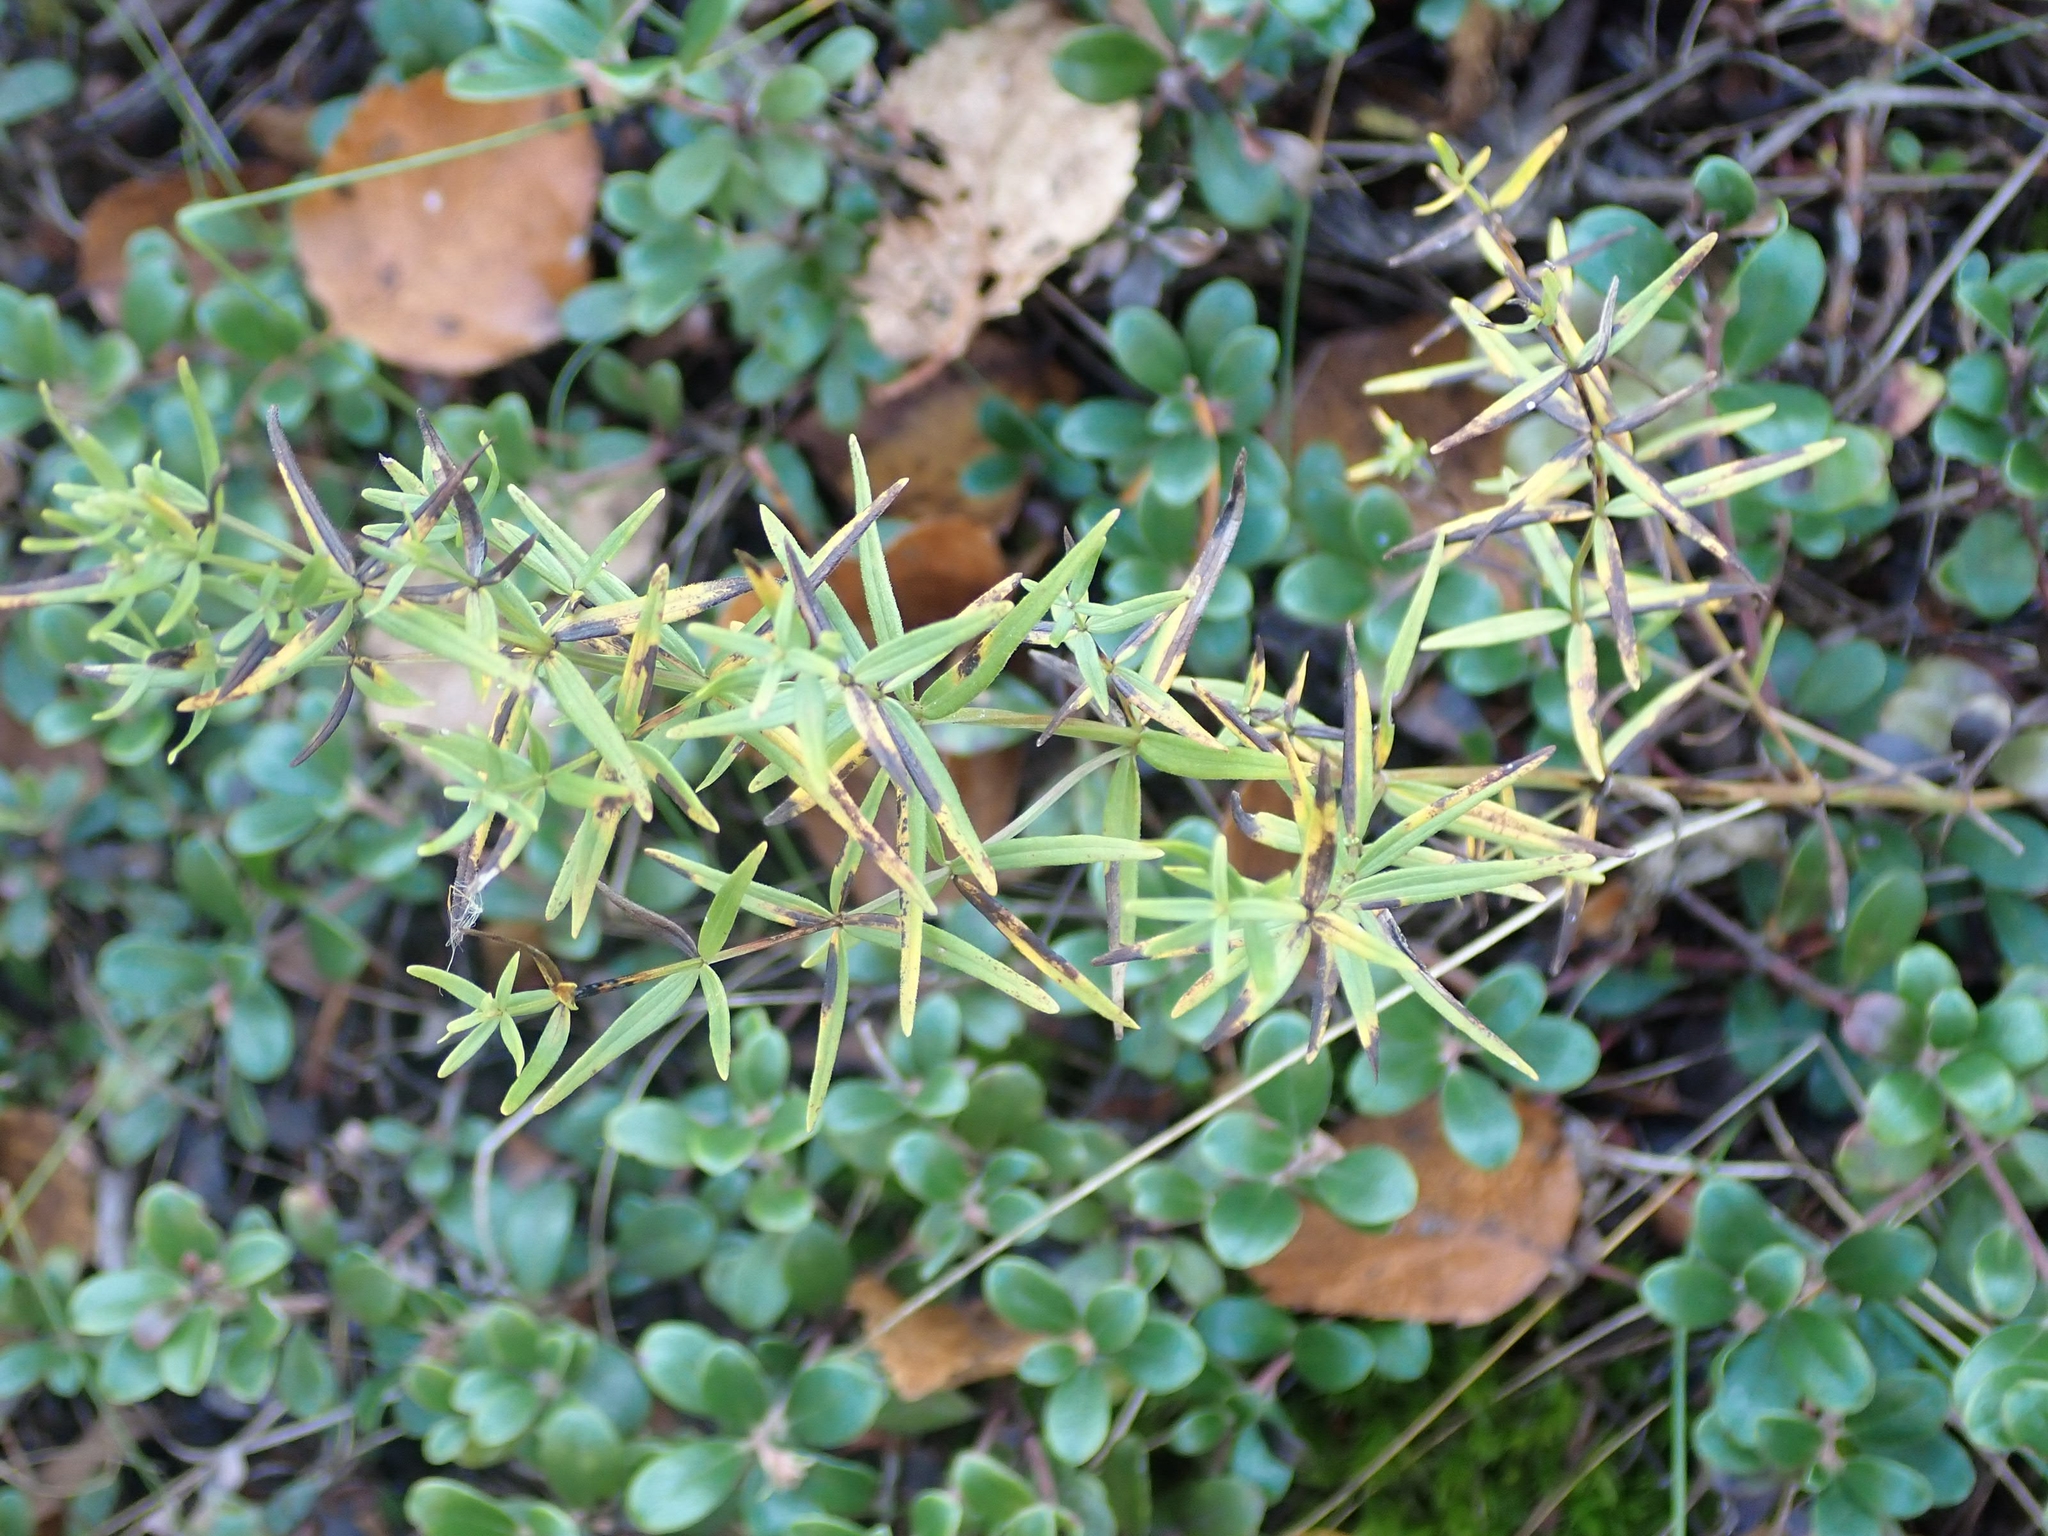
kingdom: Plantae
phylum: Tracheophyta
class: Magnoliopsida
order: Gentianales
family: Rubiaceae
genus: Galium
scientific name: Galium boreale
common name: Northern bedstraw
